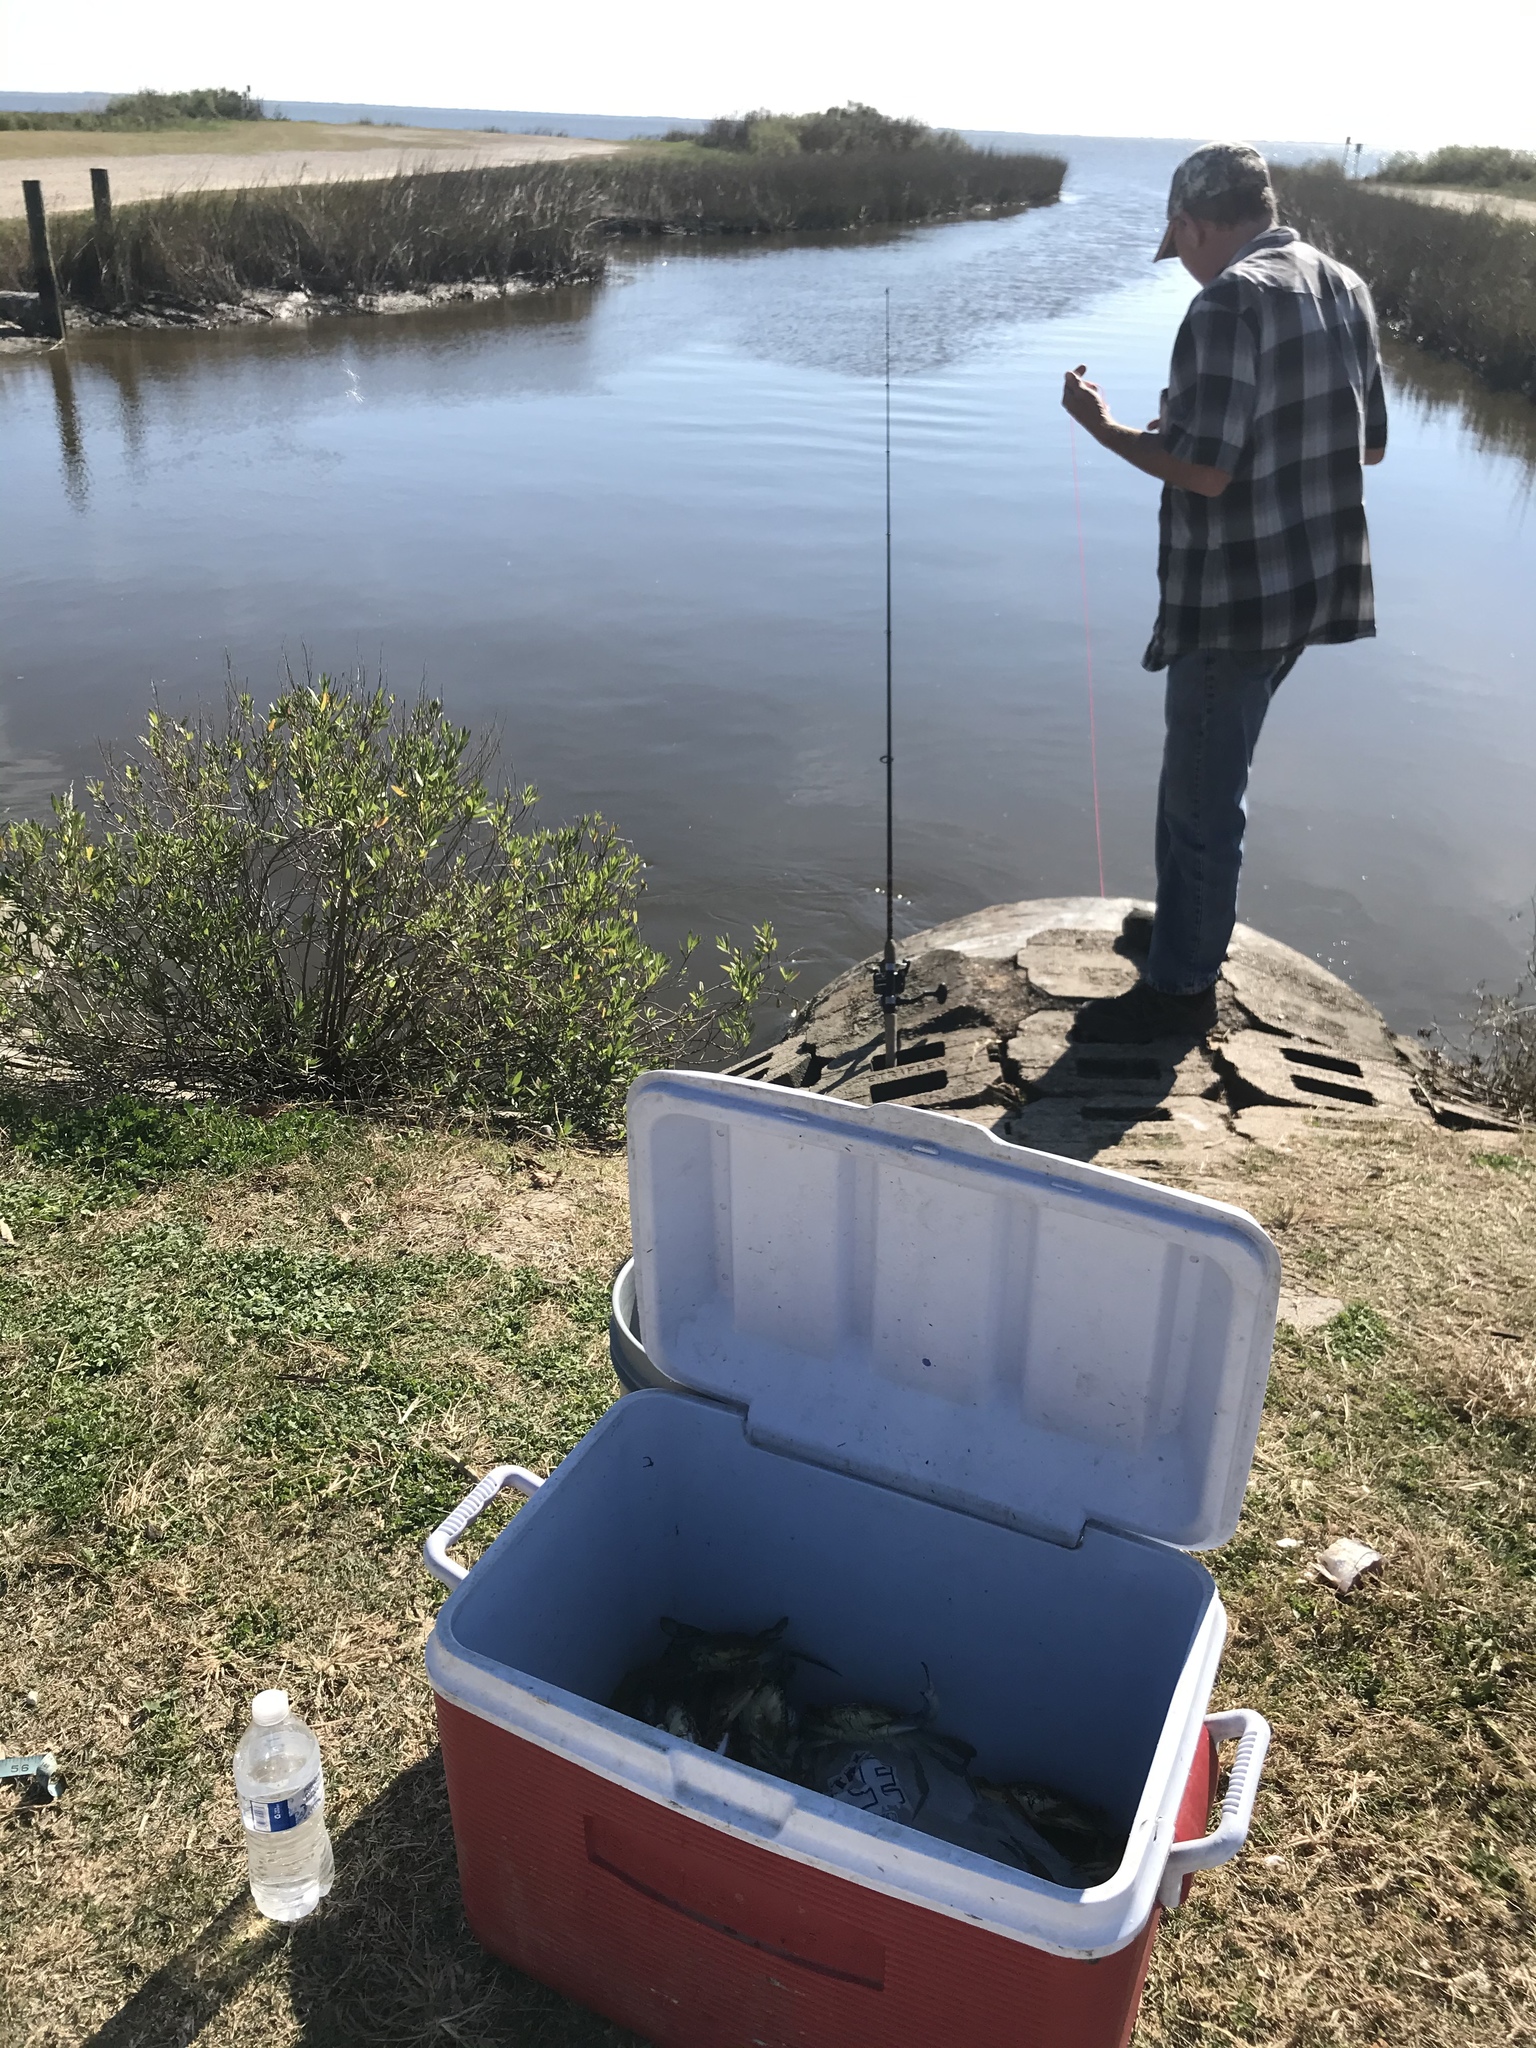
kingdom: Animalia
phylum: Arthropoda
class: Malacostraca
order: Decapoda
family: Portunidae
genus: Callinectes
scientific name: Callinectes sapidus
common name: Blue crab
